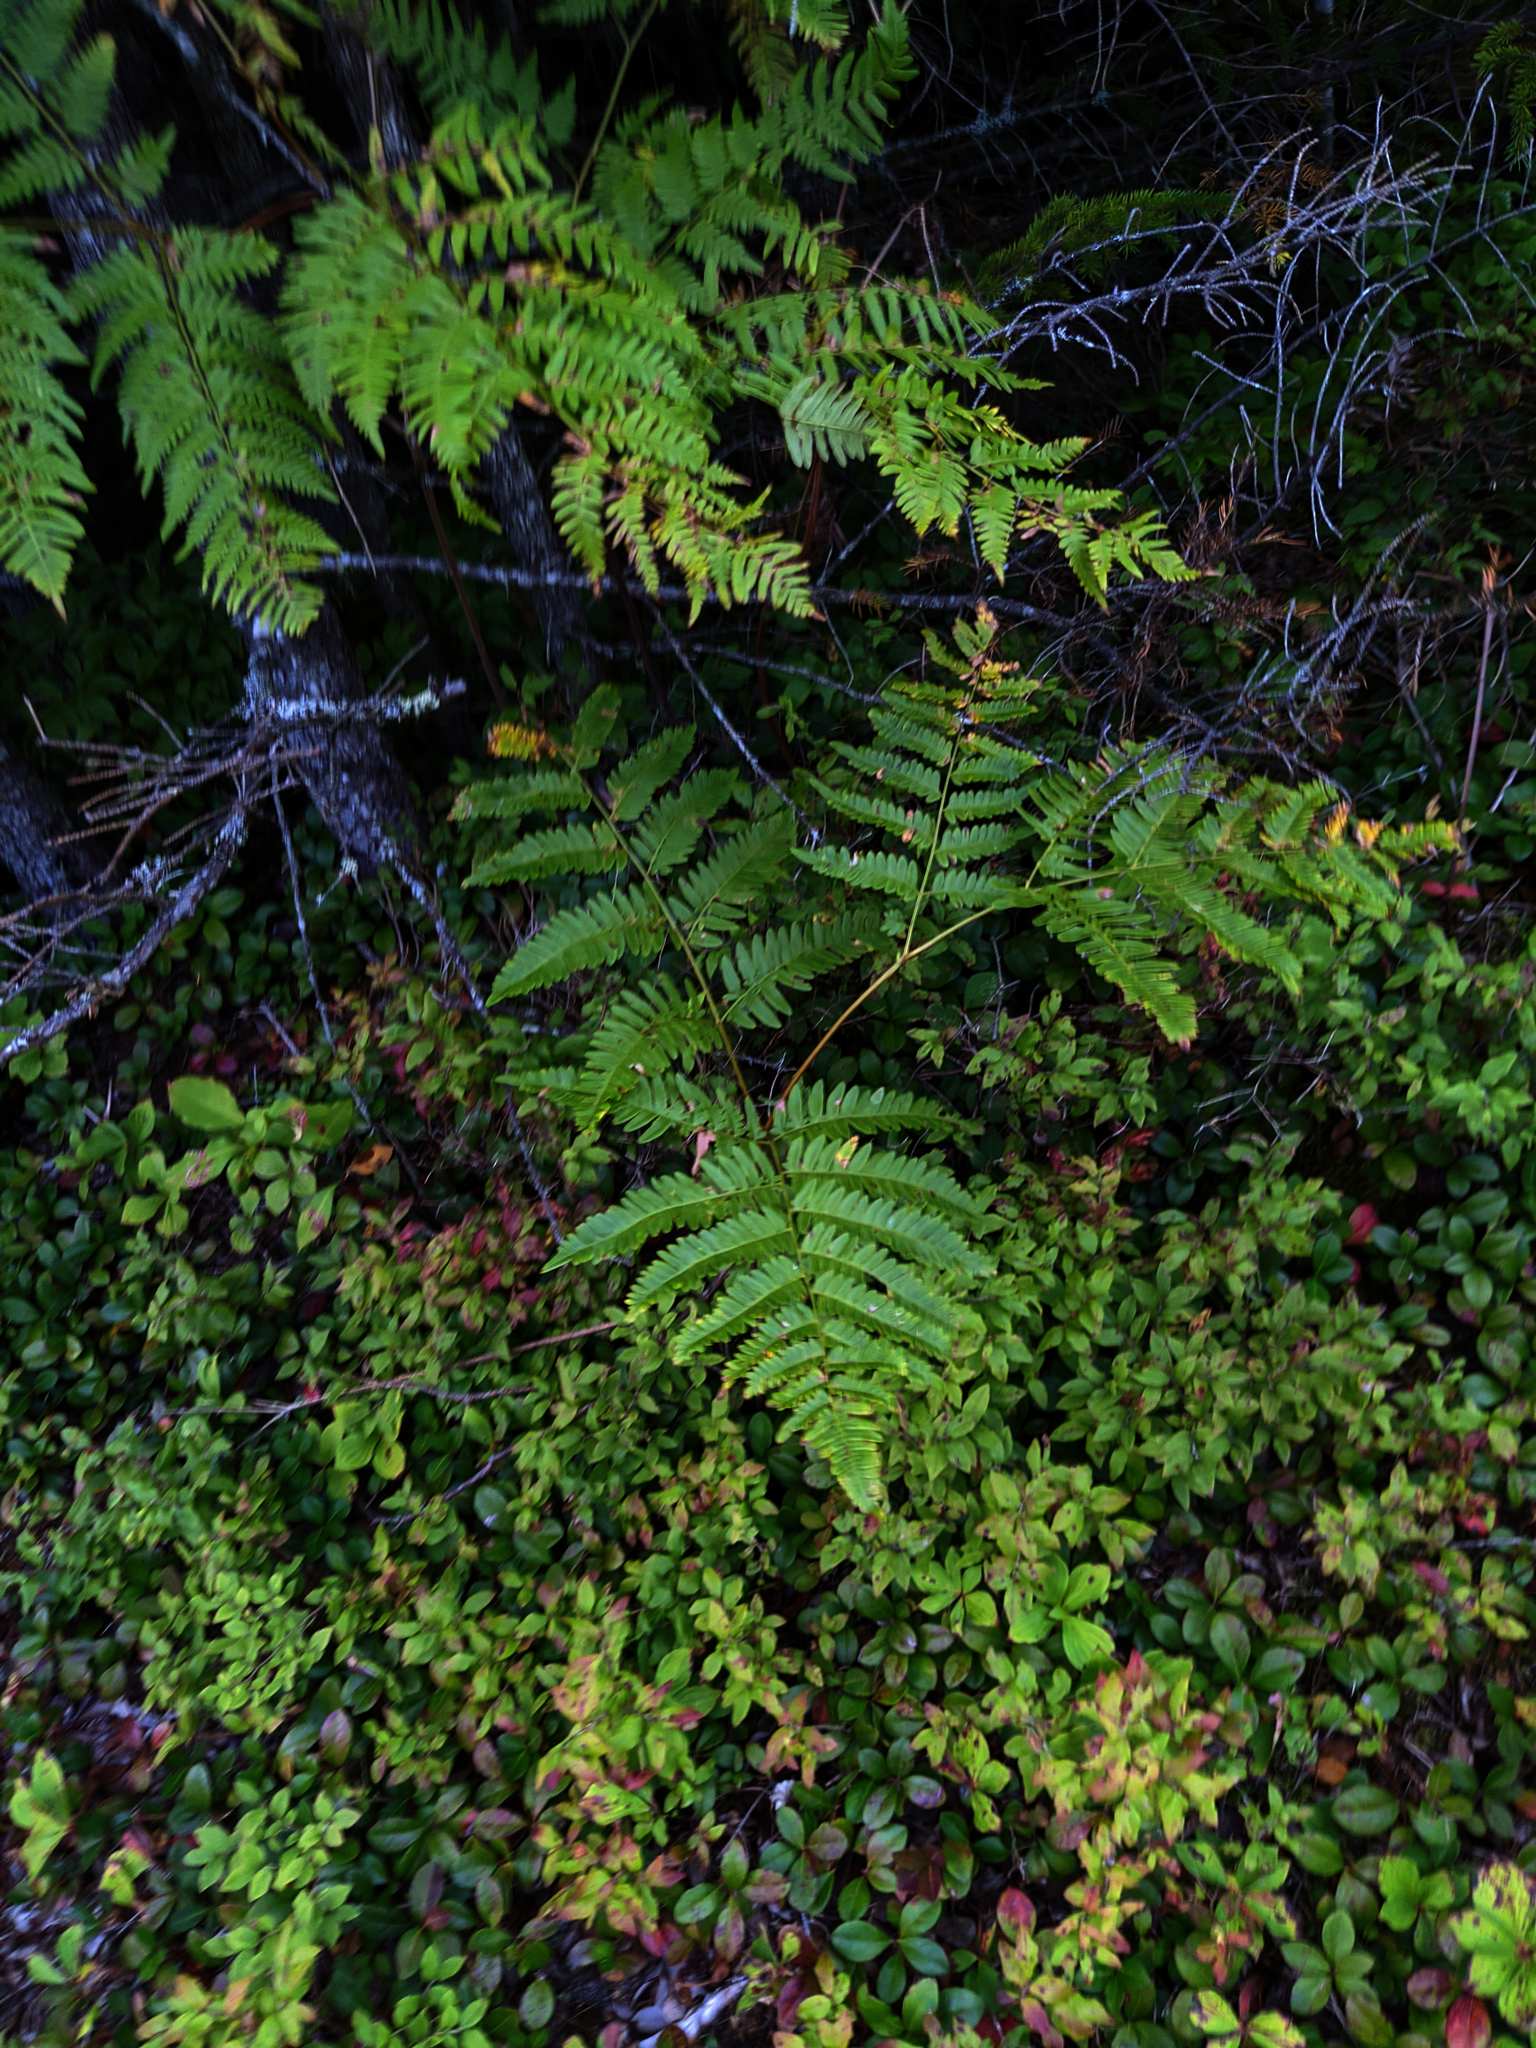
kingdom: Plantae
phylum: Tracheophyta
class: Polypodiopsida
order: Polypodiales
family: Dennstaedtiaceae
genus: Pteridium
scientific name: Pteridium aquilinum
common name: Bracken
